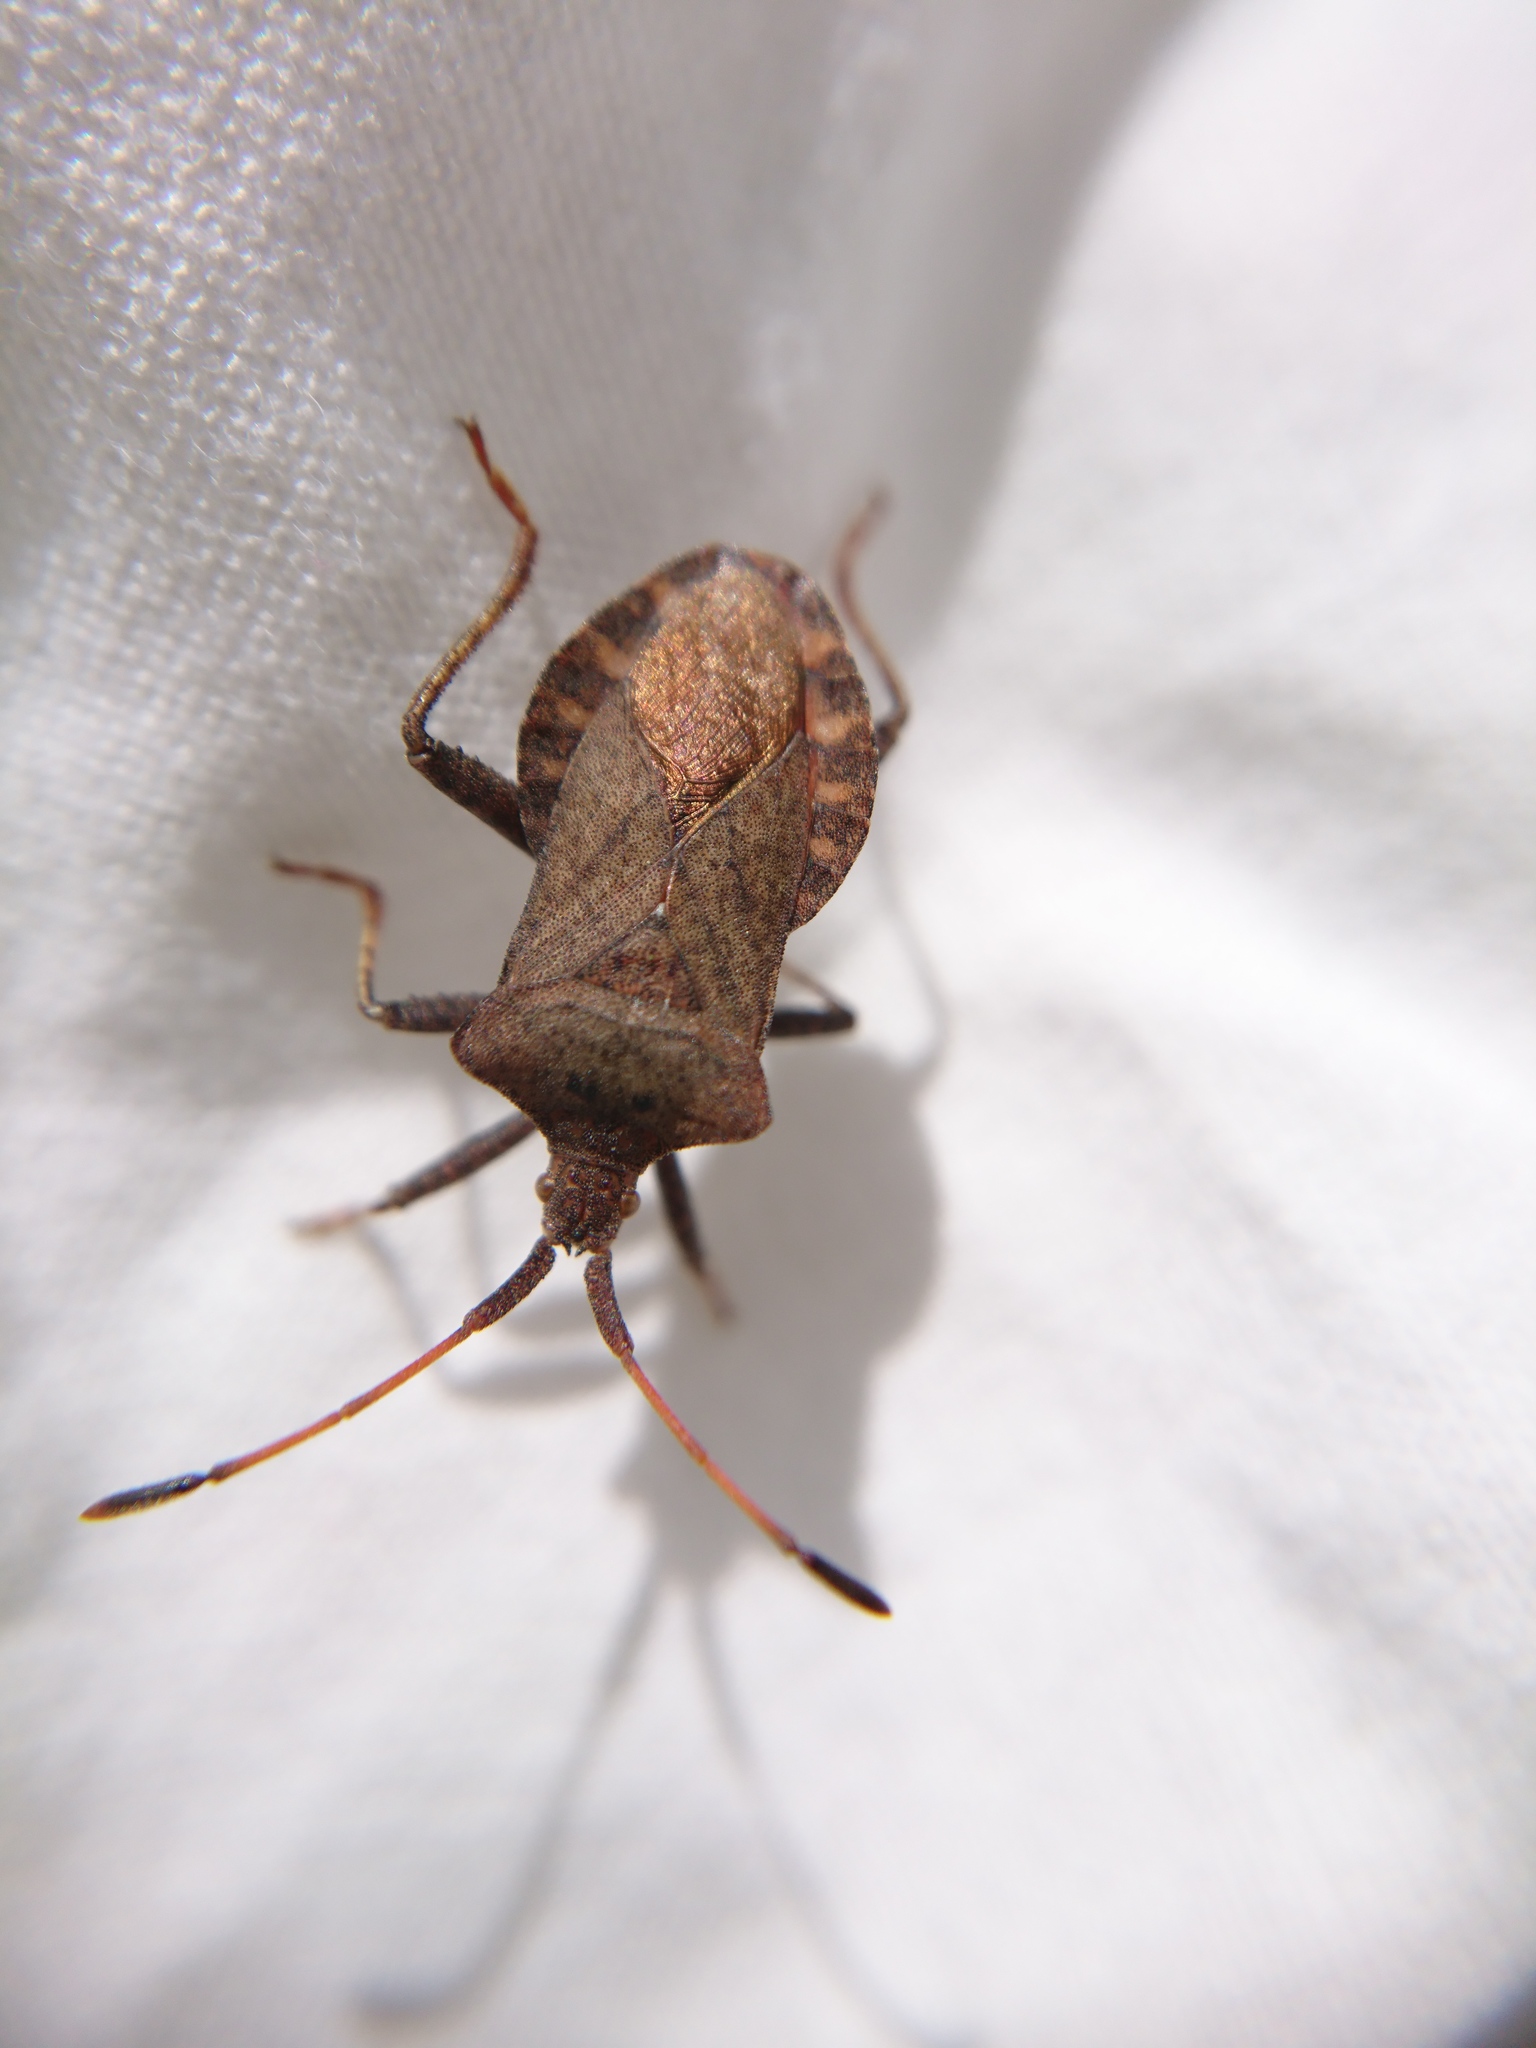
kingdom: Animalia
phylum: Arthropoda
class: Insecta
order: Hemiptera
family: Coreidae
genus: Coreus
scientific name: Coreus marginatus
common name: Dock bug
